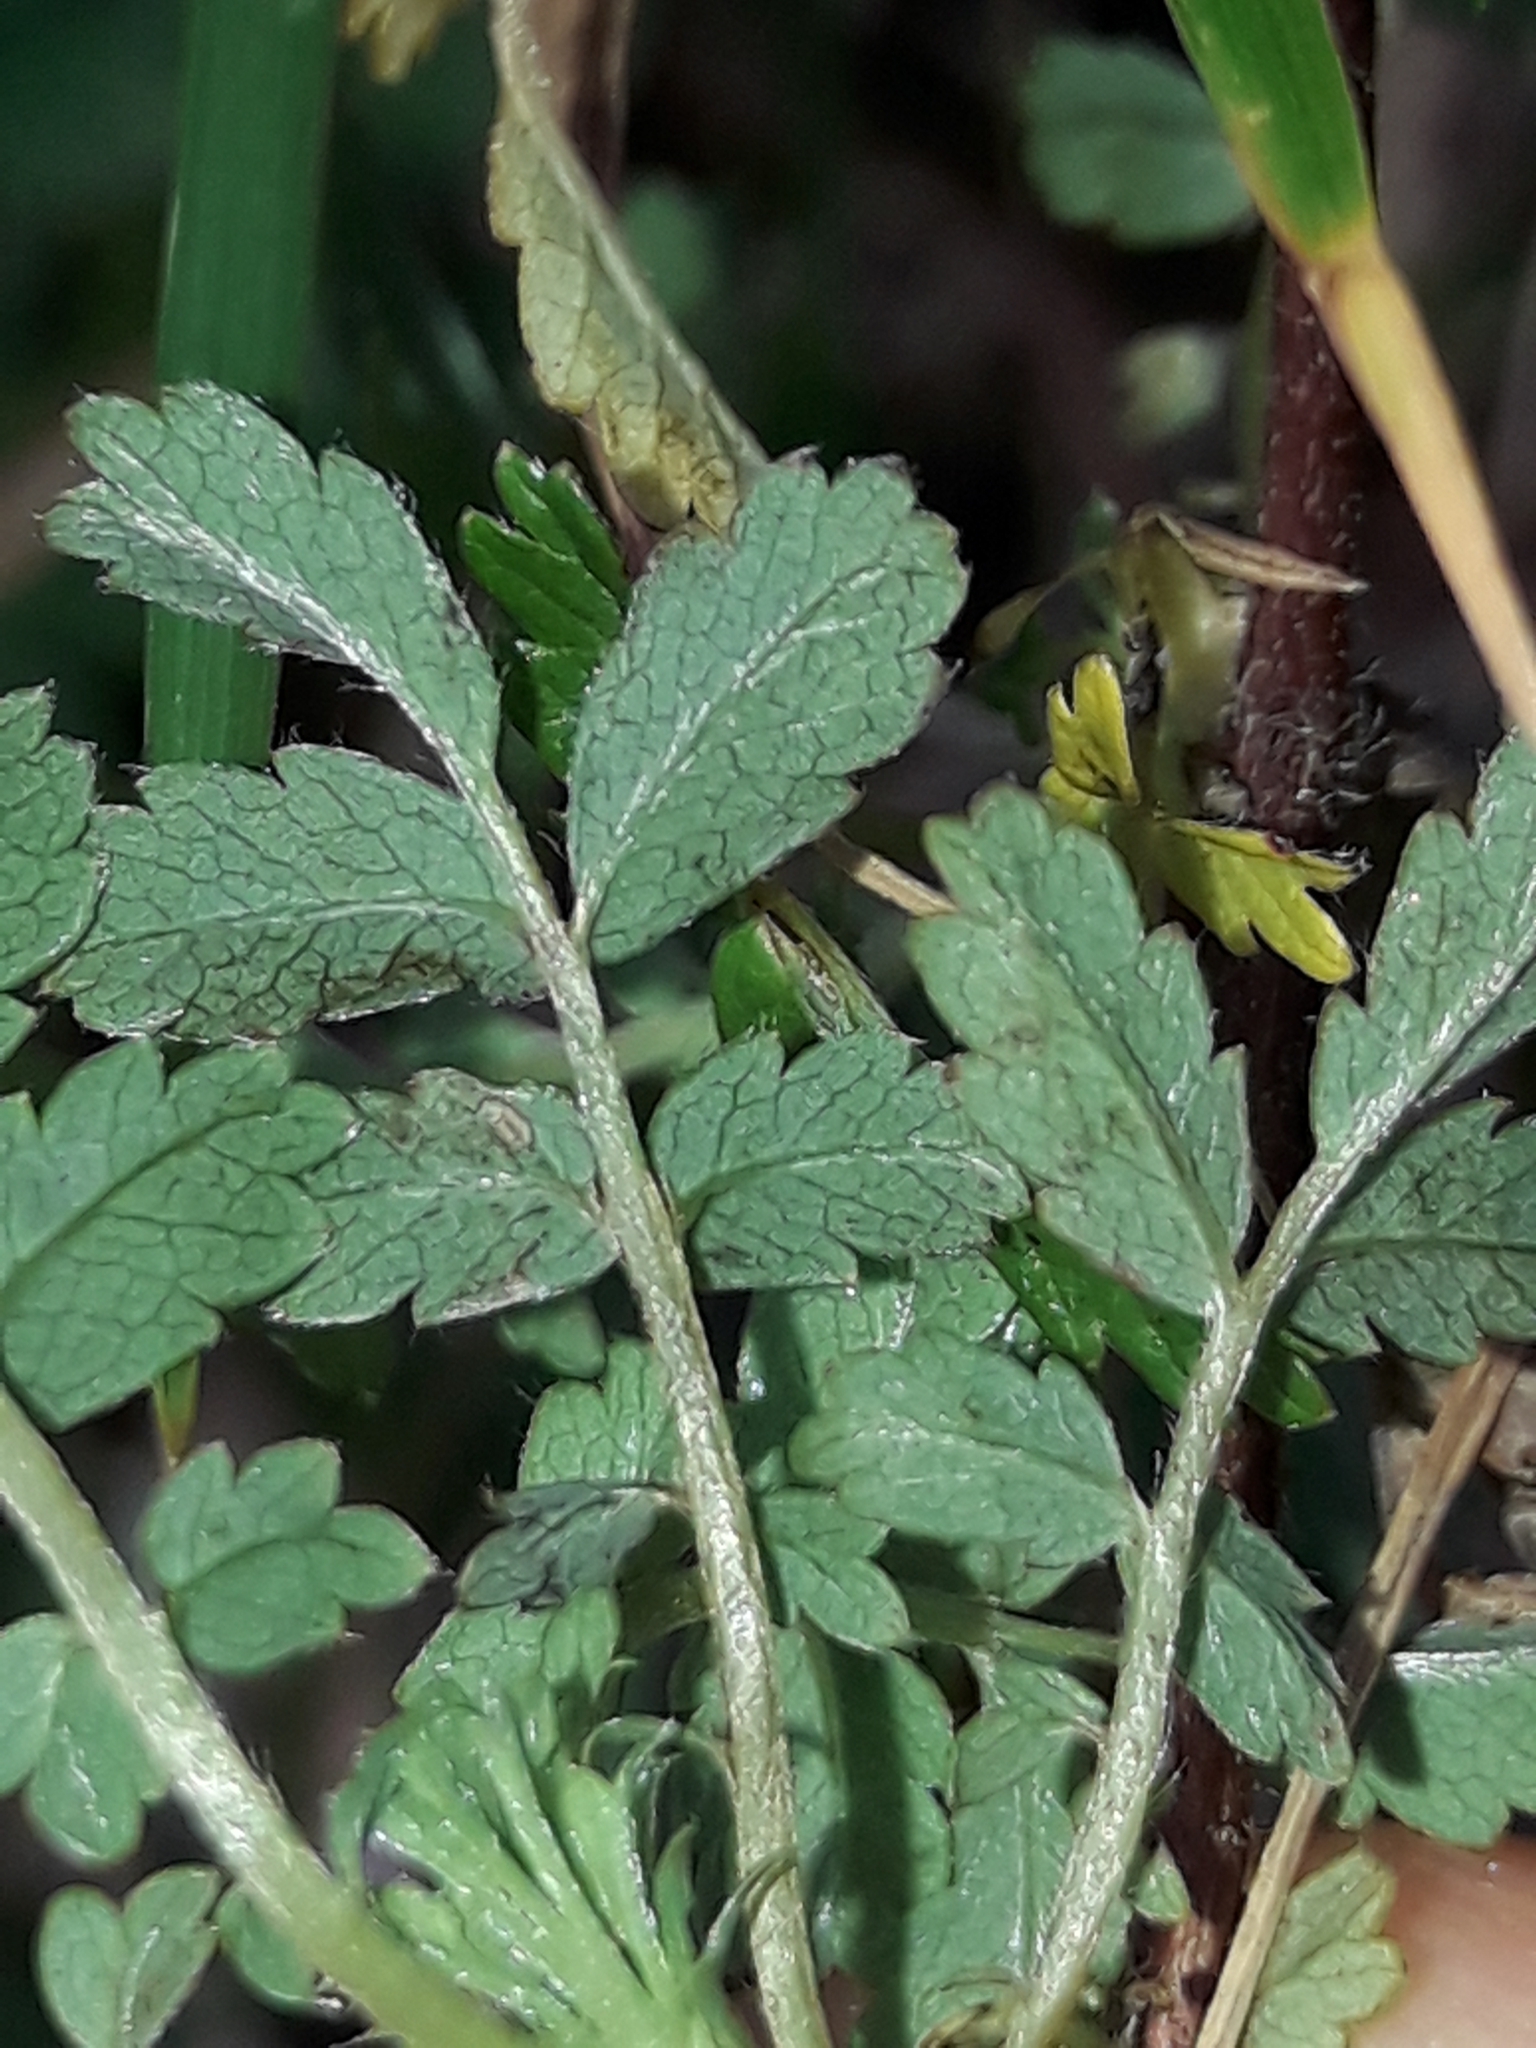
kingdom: Plantae
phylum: Tracheophyta
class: Magnoliopsida
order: Rosales
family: Rosaceae
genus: Acaena
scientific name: Acaena novae-zelandiae
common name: Pirri-pirri-bur
